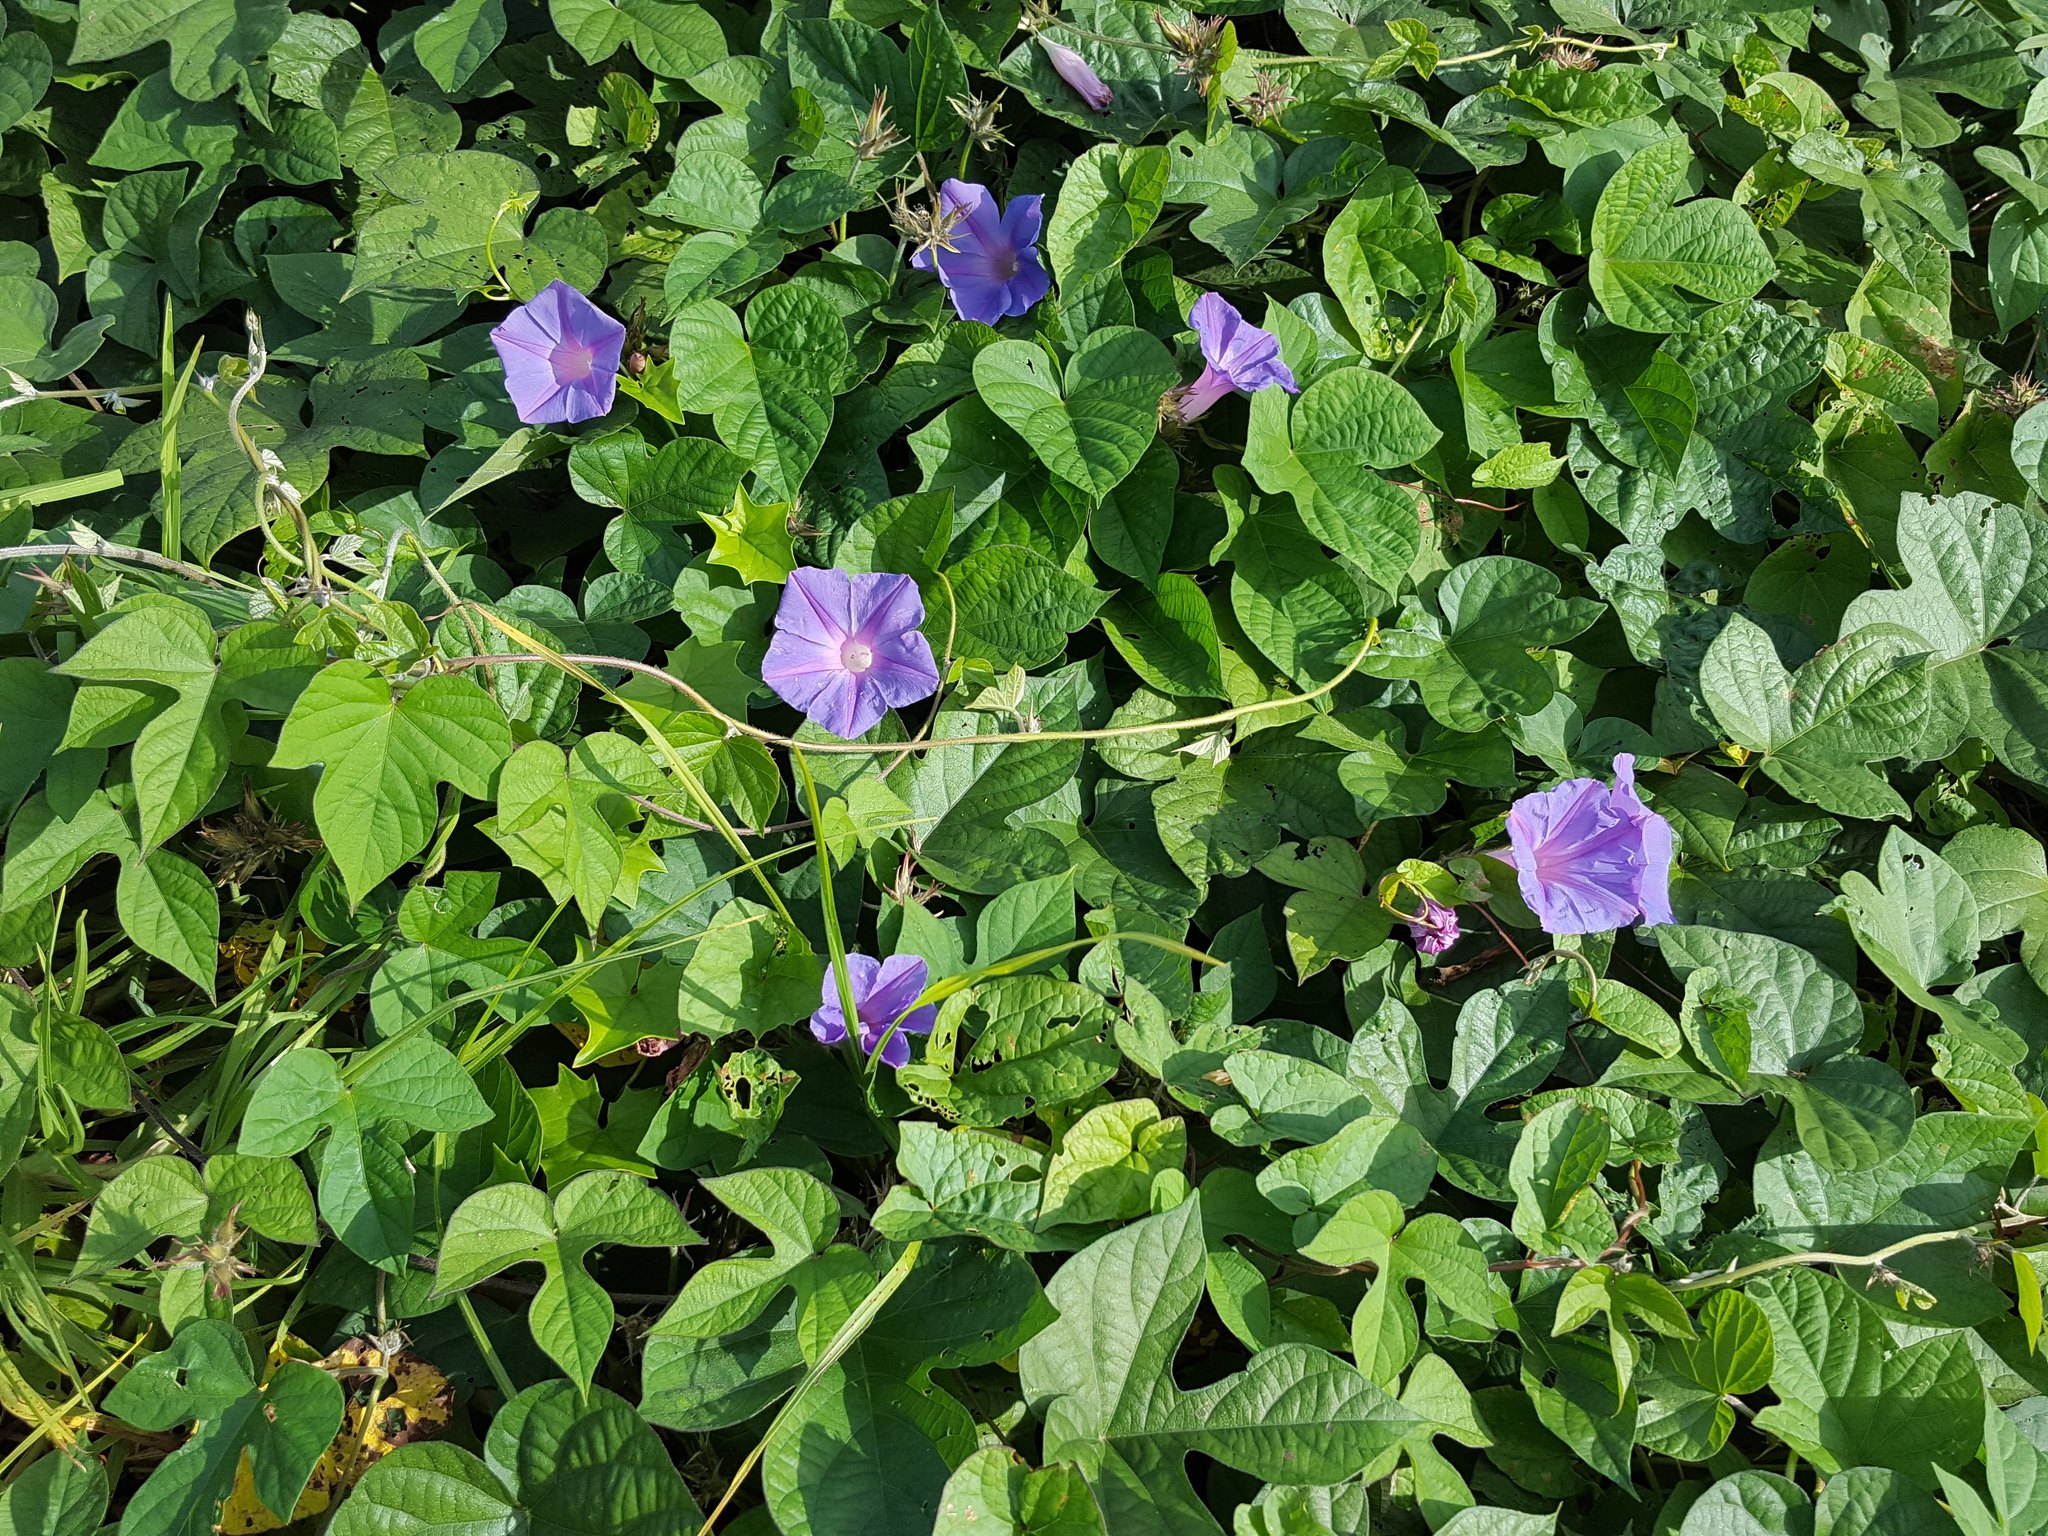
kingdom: Plantae
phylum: Tracheophyta
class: Magnoliopsida
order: Solanales
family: Convolvulaceae
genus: Ipomoea
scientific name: Ipomoea indica
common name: Blue dawnflower
